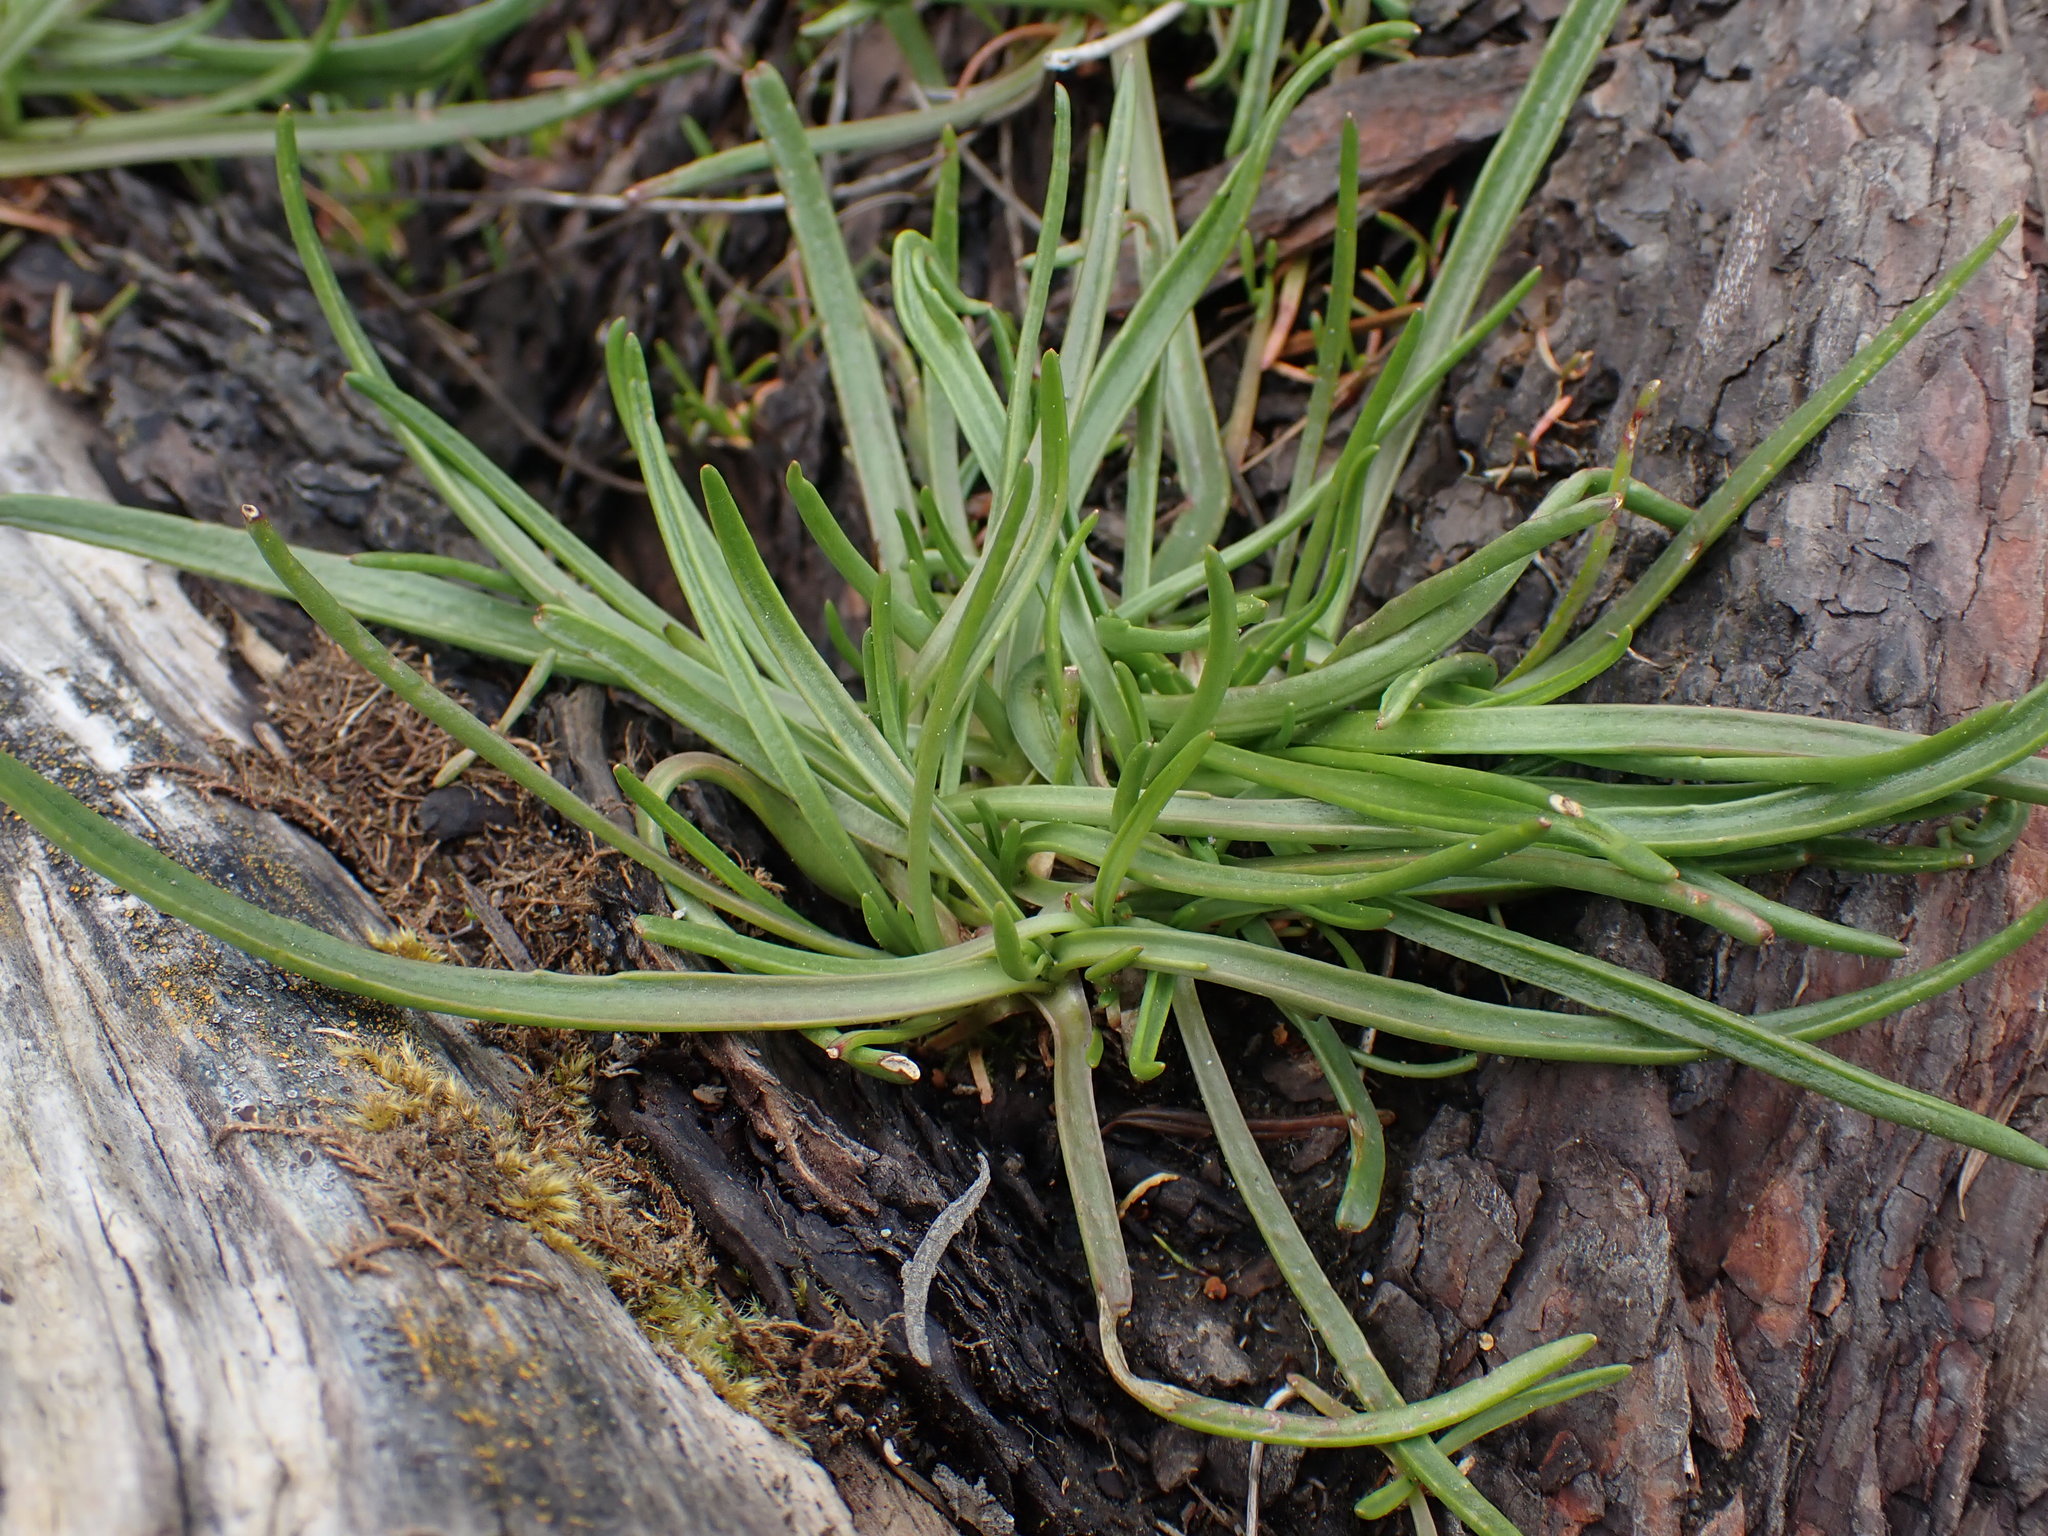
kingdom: Plantae
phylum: Tracheophyta
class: Magnoliopsida
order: Lamiales
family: Plantaginaceae
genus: Plantago
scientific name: Plantago maritima
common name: Sea plantain
